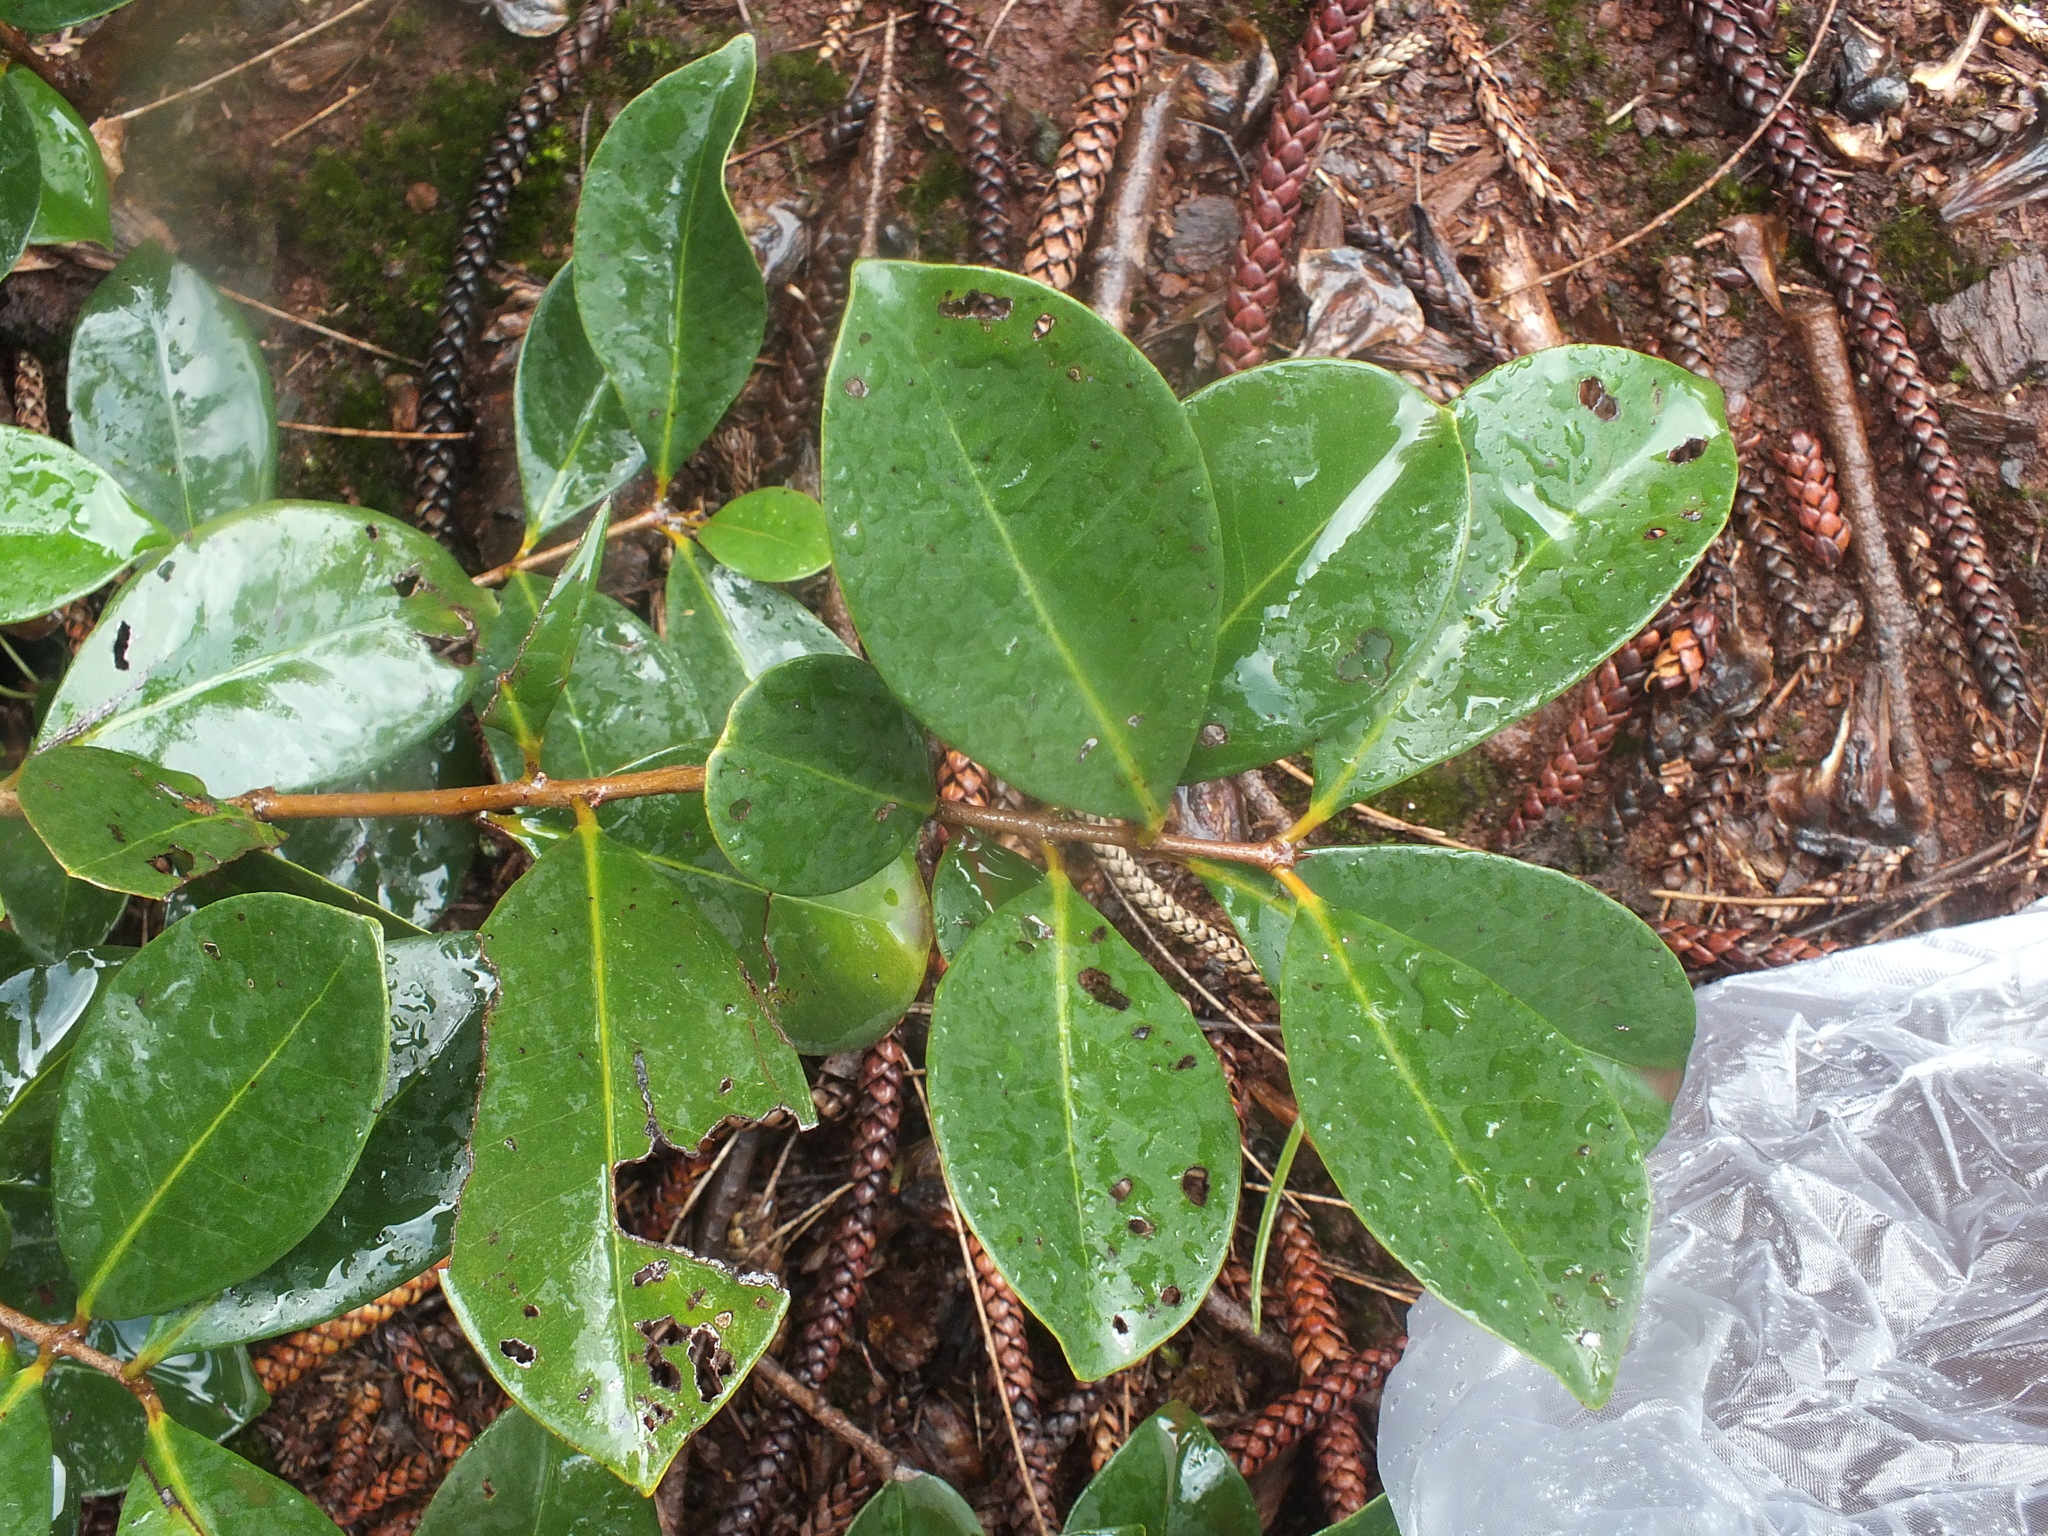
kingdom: Plantae
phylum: Tracheophyta
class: Magnoliopsida
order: Myrtales
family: Myrtaceae
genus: Psidium
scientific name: Psidium cattleianum
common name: Strawberry guava
